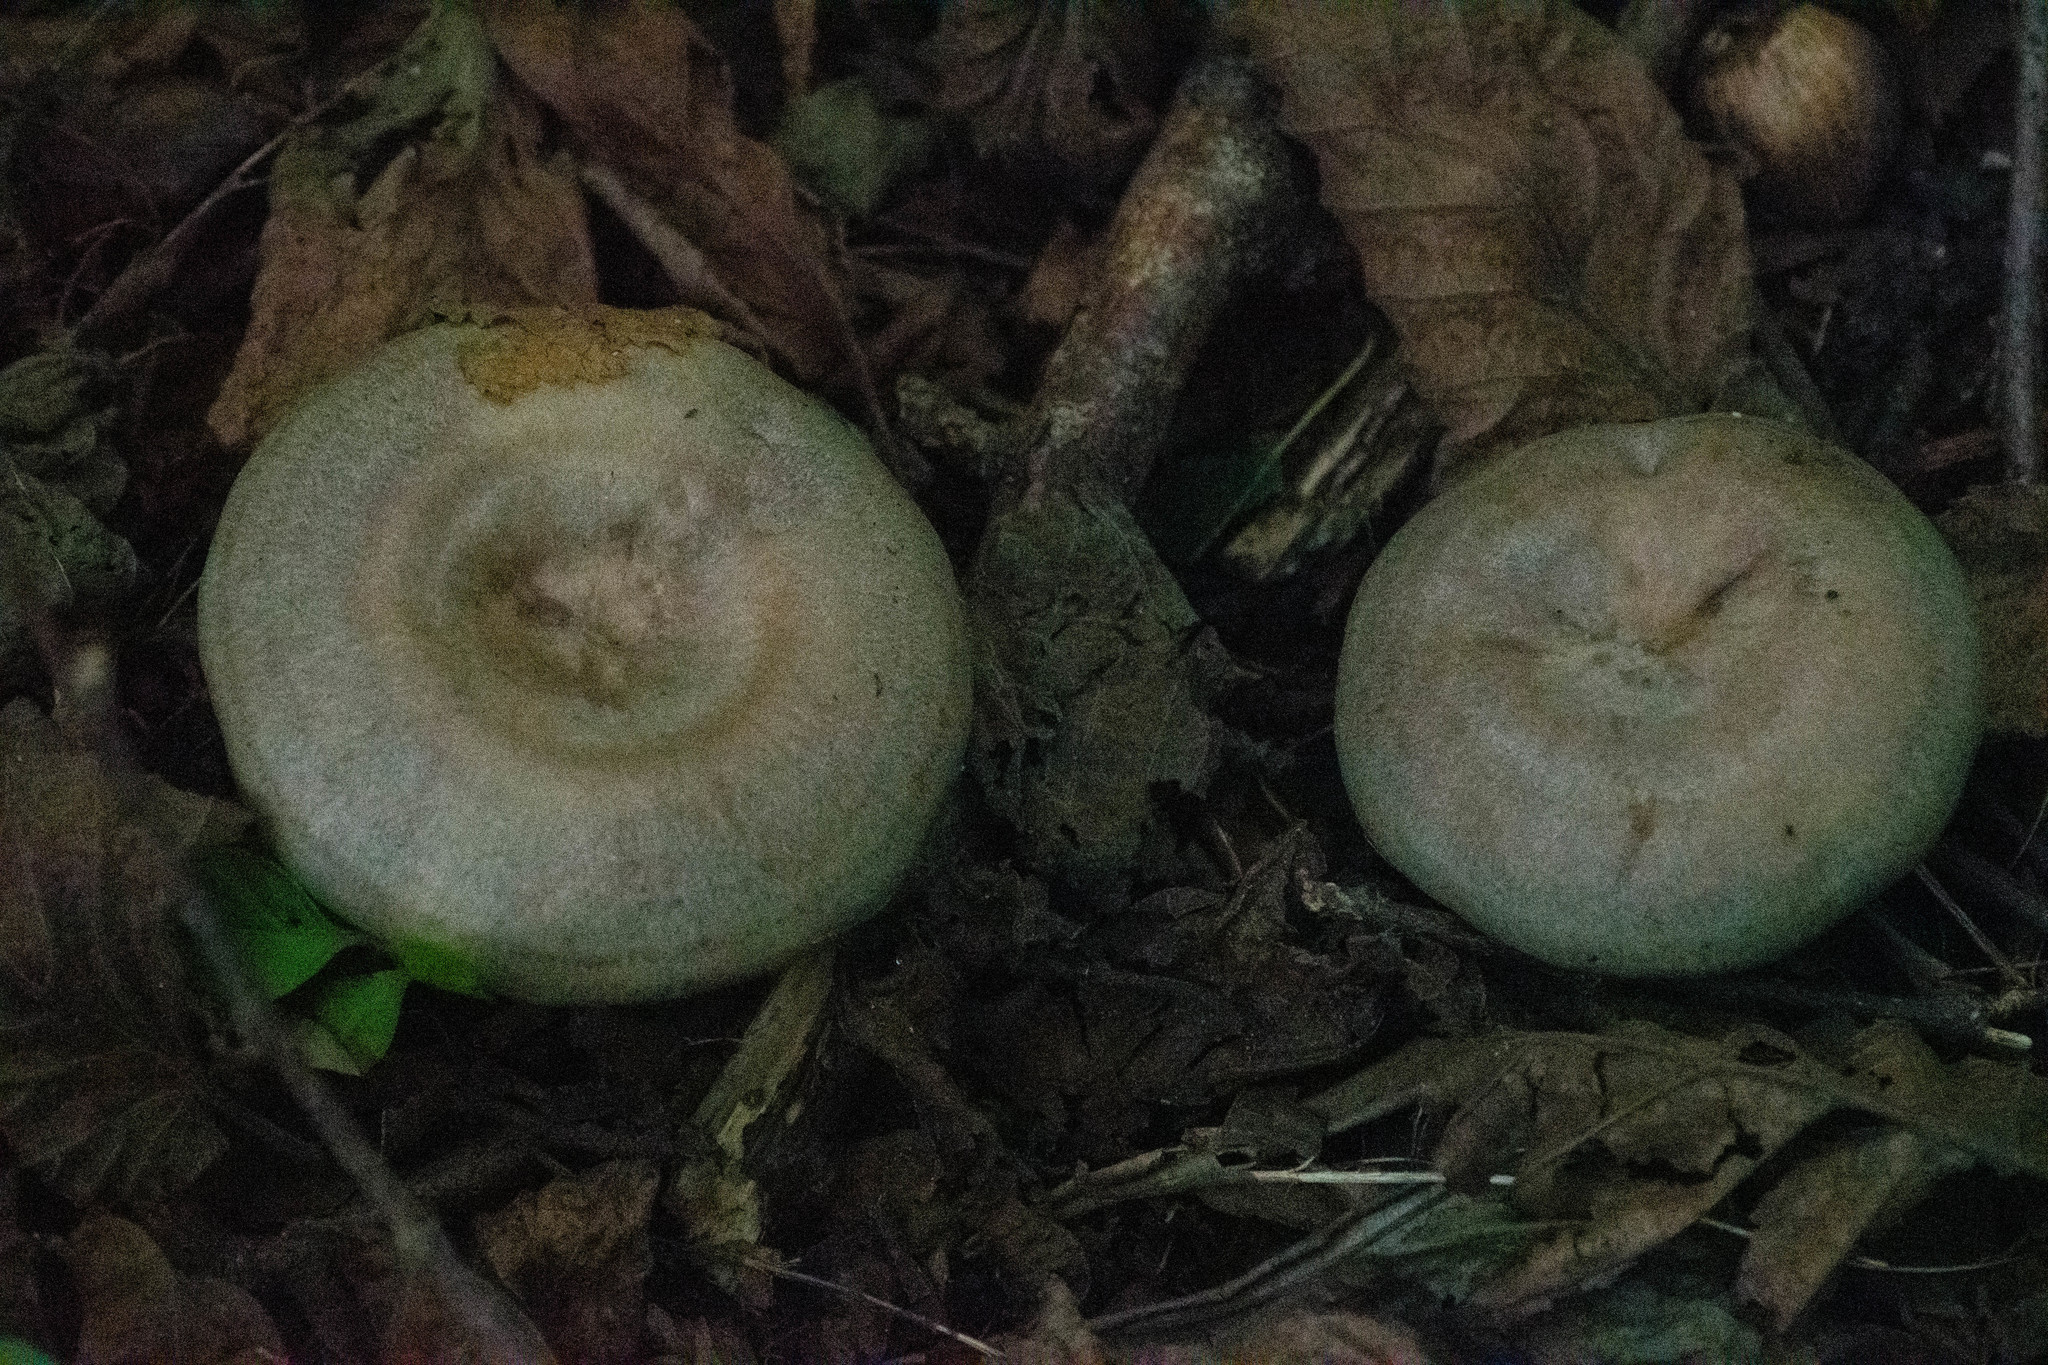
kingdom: Fungi
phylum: Basidiomycota
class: Agaricomycetes
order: Russulales
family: Russulaceae
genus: Lactarius
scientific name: Lactarius deterrimus
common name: False saffron milkcap
